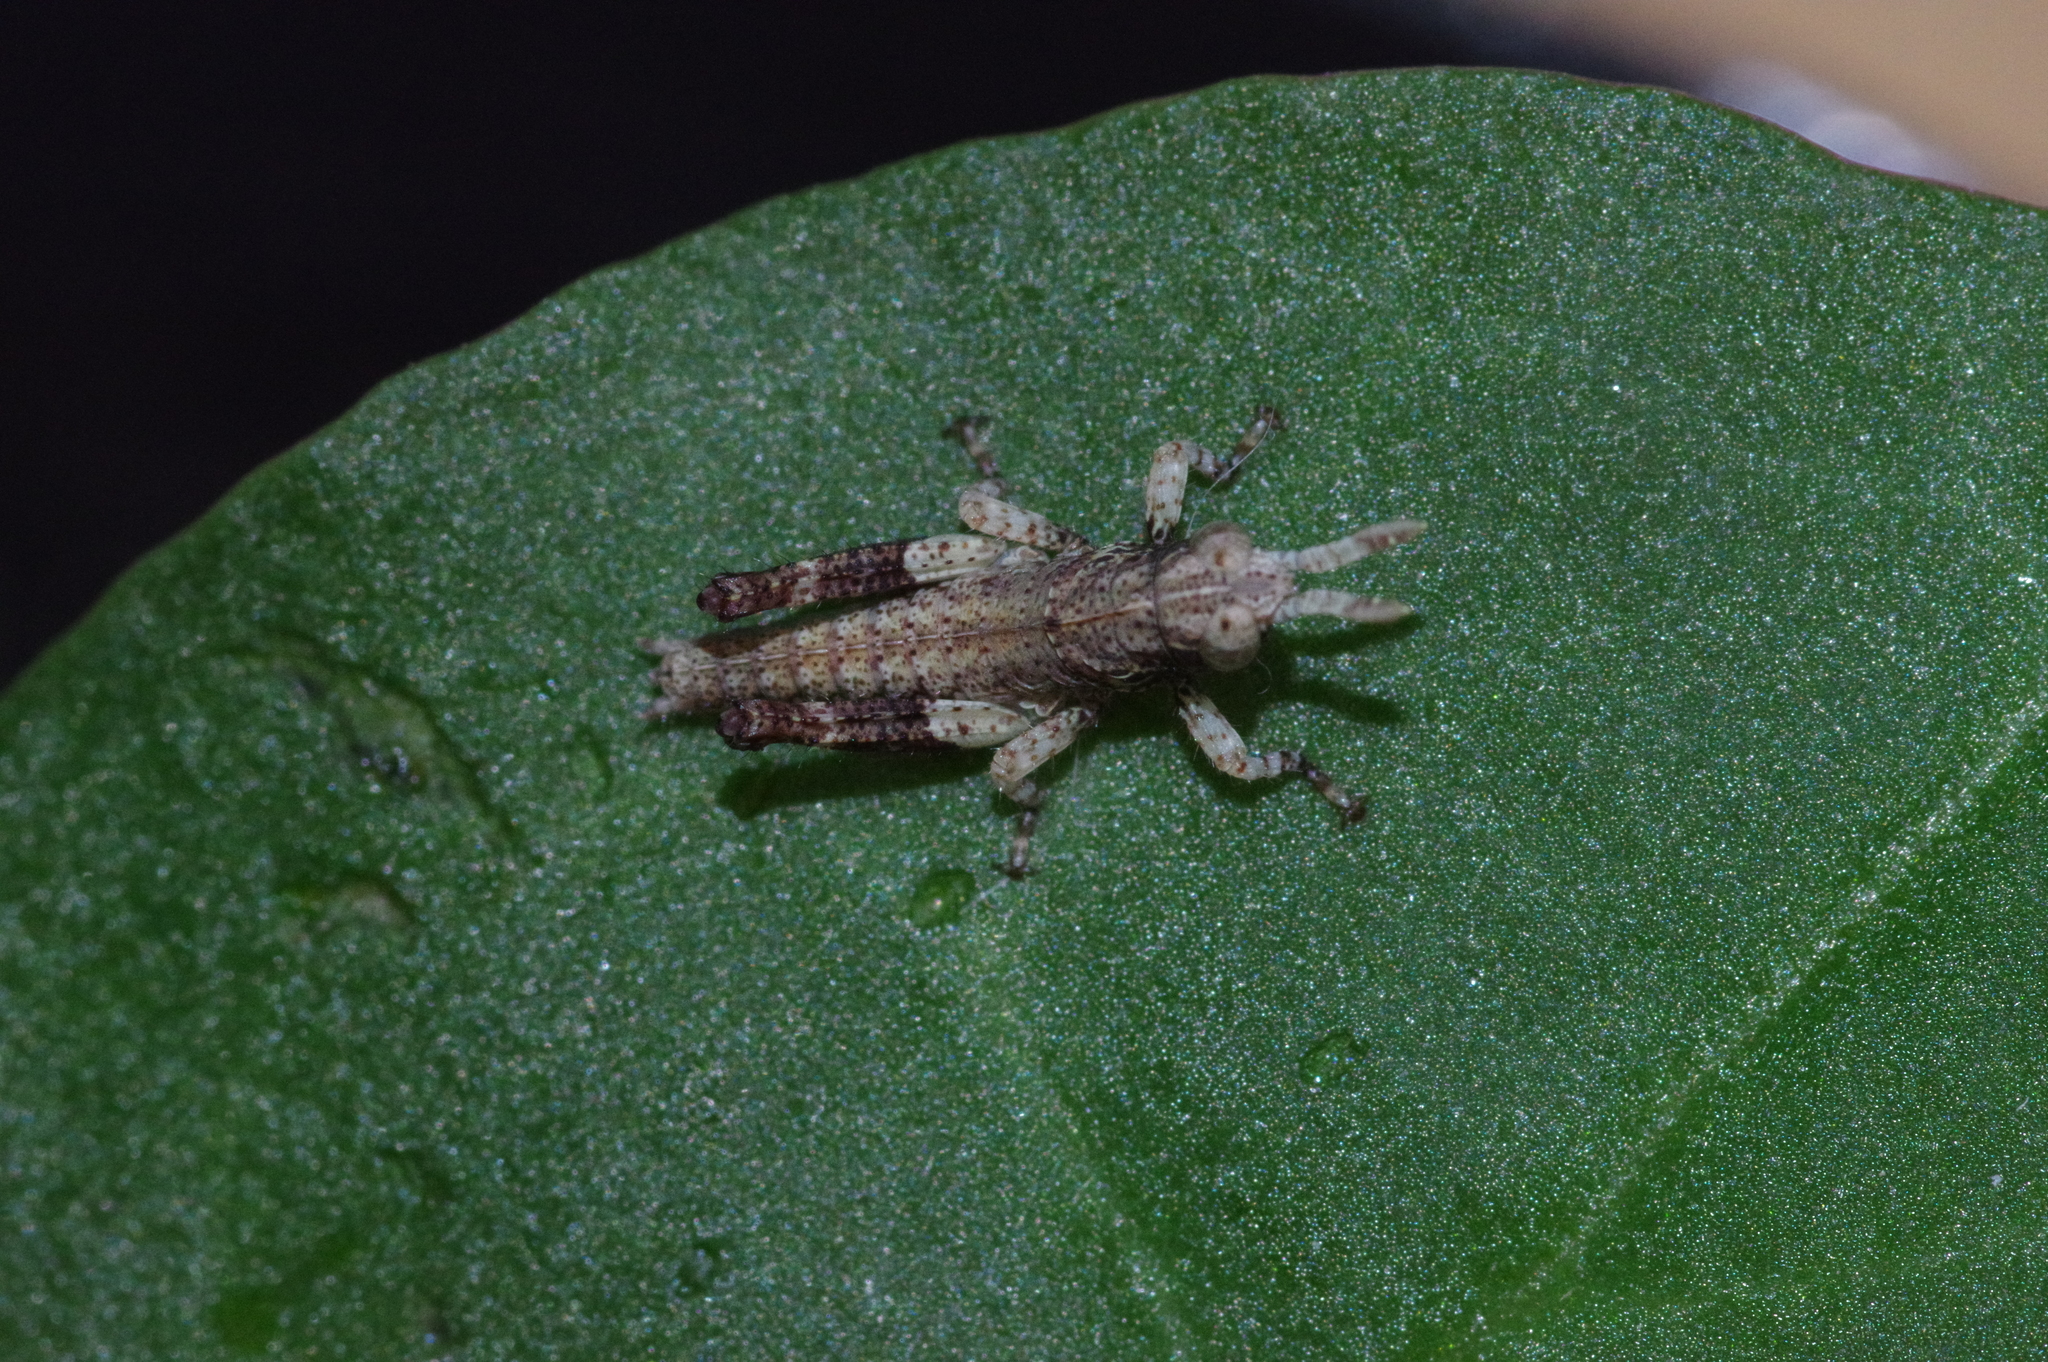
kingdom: Animalia
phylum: Arthropoda
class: Insecta
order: Orthoptera
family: Acrididae
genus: Traulia
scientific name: Traulia ornata
